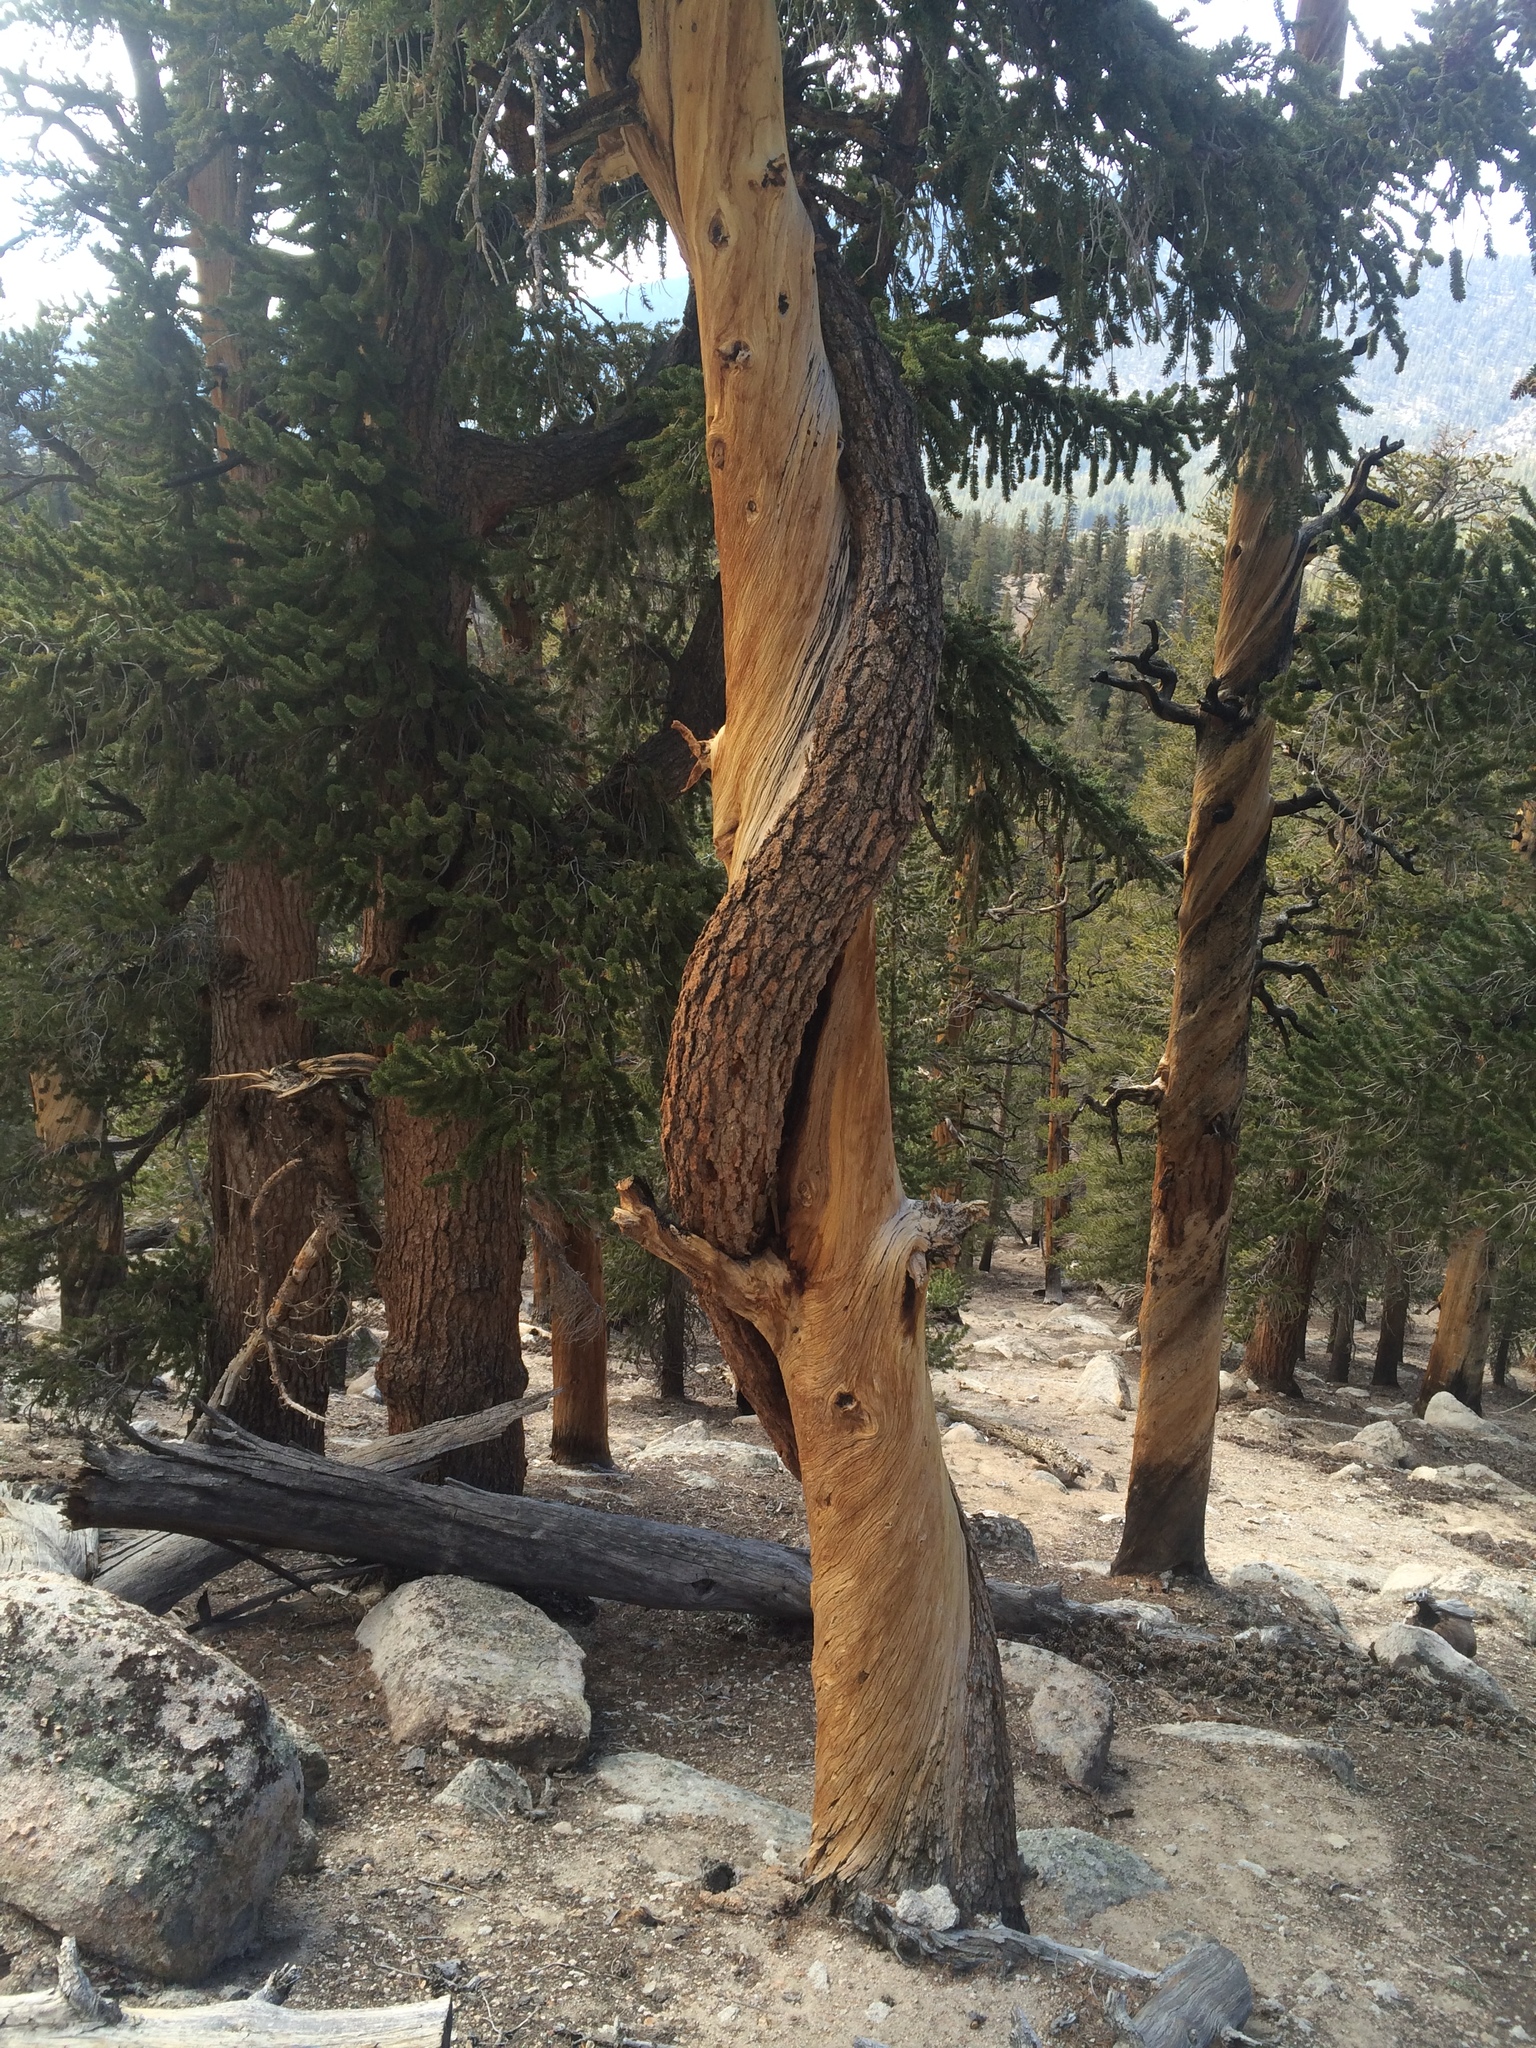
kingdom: Plantae
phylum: Tracheophyta
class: Pinopsida
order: Pinales
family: Pinaceae
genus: Pinus
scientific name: Pinus balfouriana
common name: Foxtail pine
